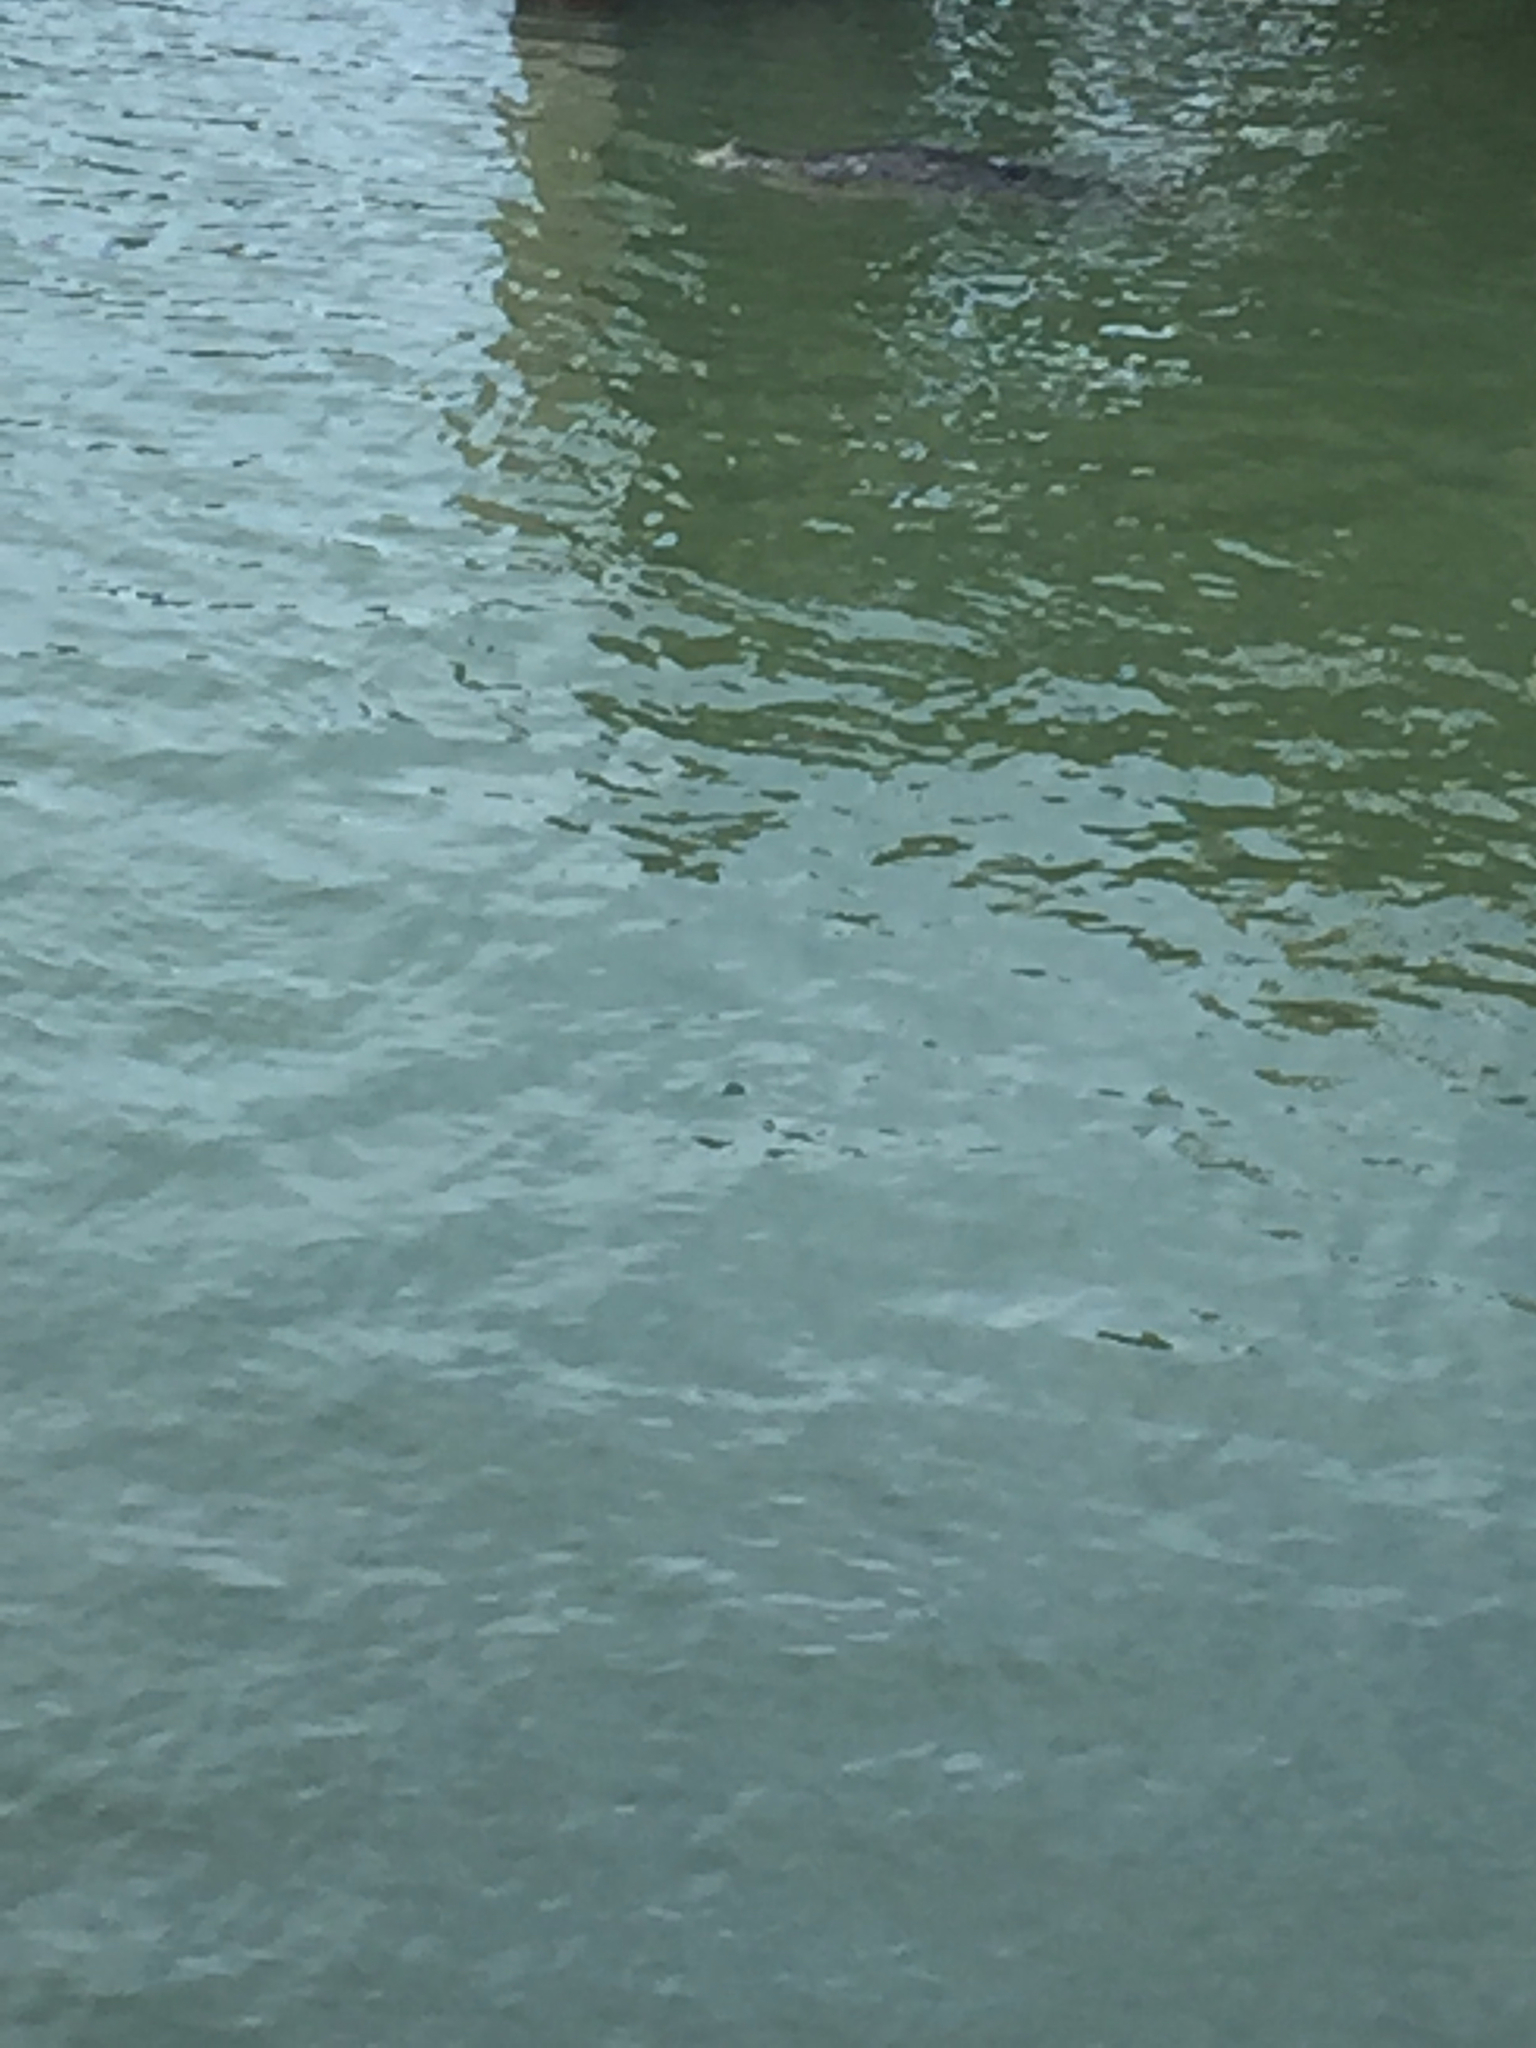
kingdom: Animalia
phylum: Chordata
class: Mammalia
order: Carnivora
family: Phocidae
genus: Phoca
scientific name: Phoca vitulina
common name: Harbor seal
